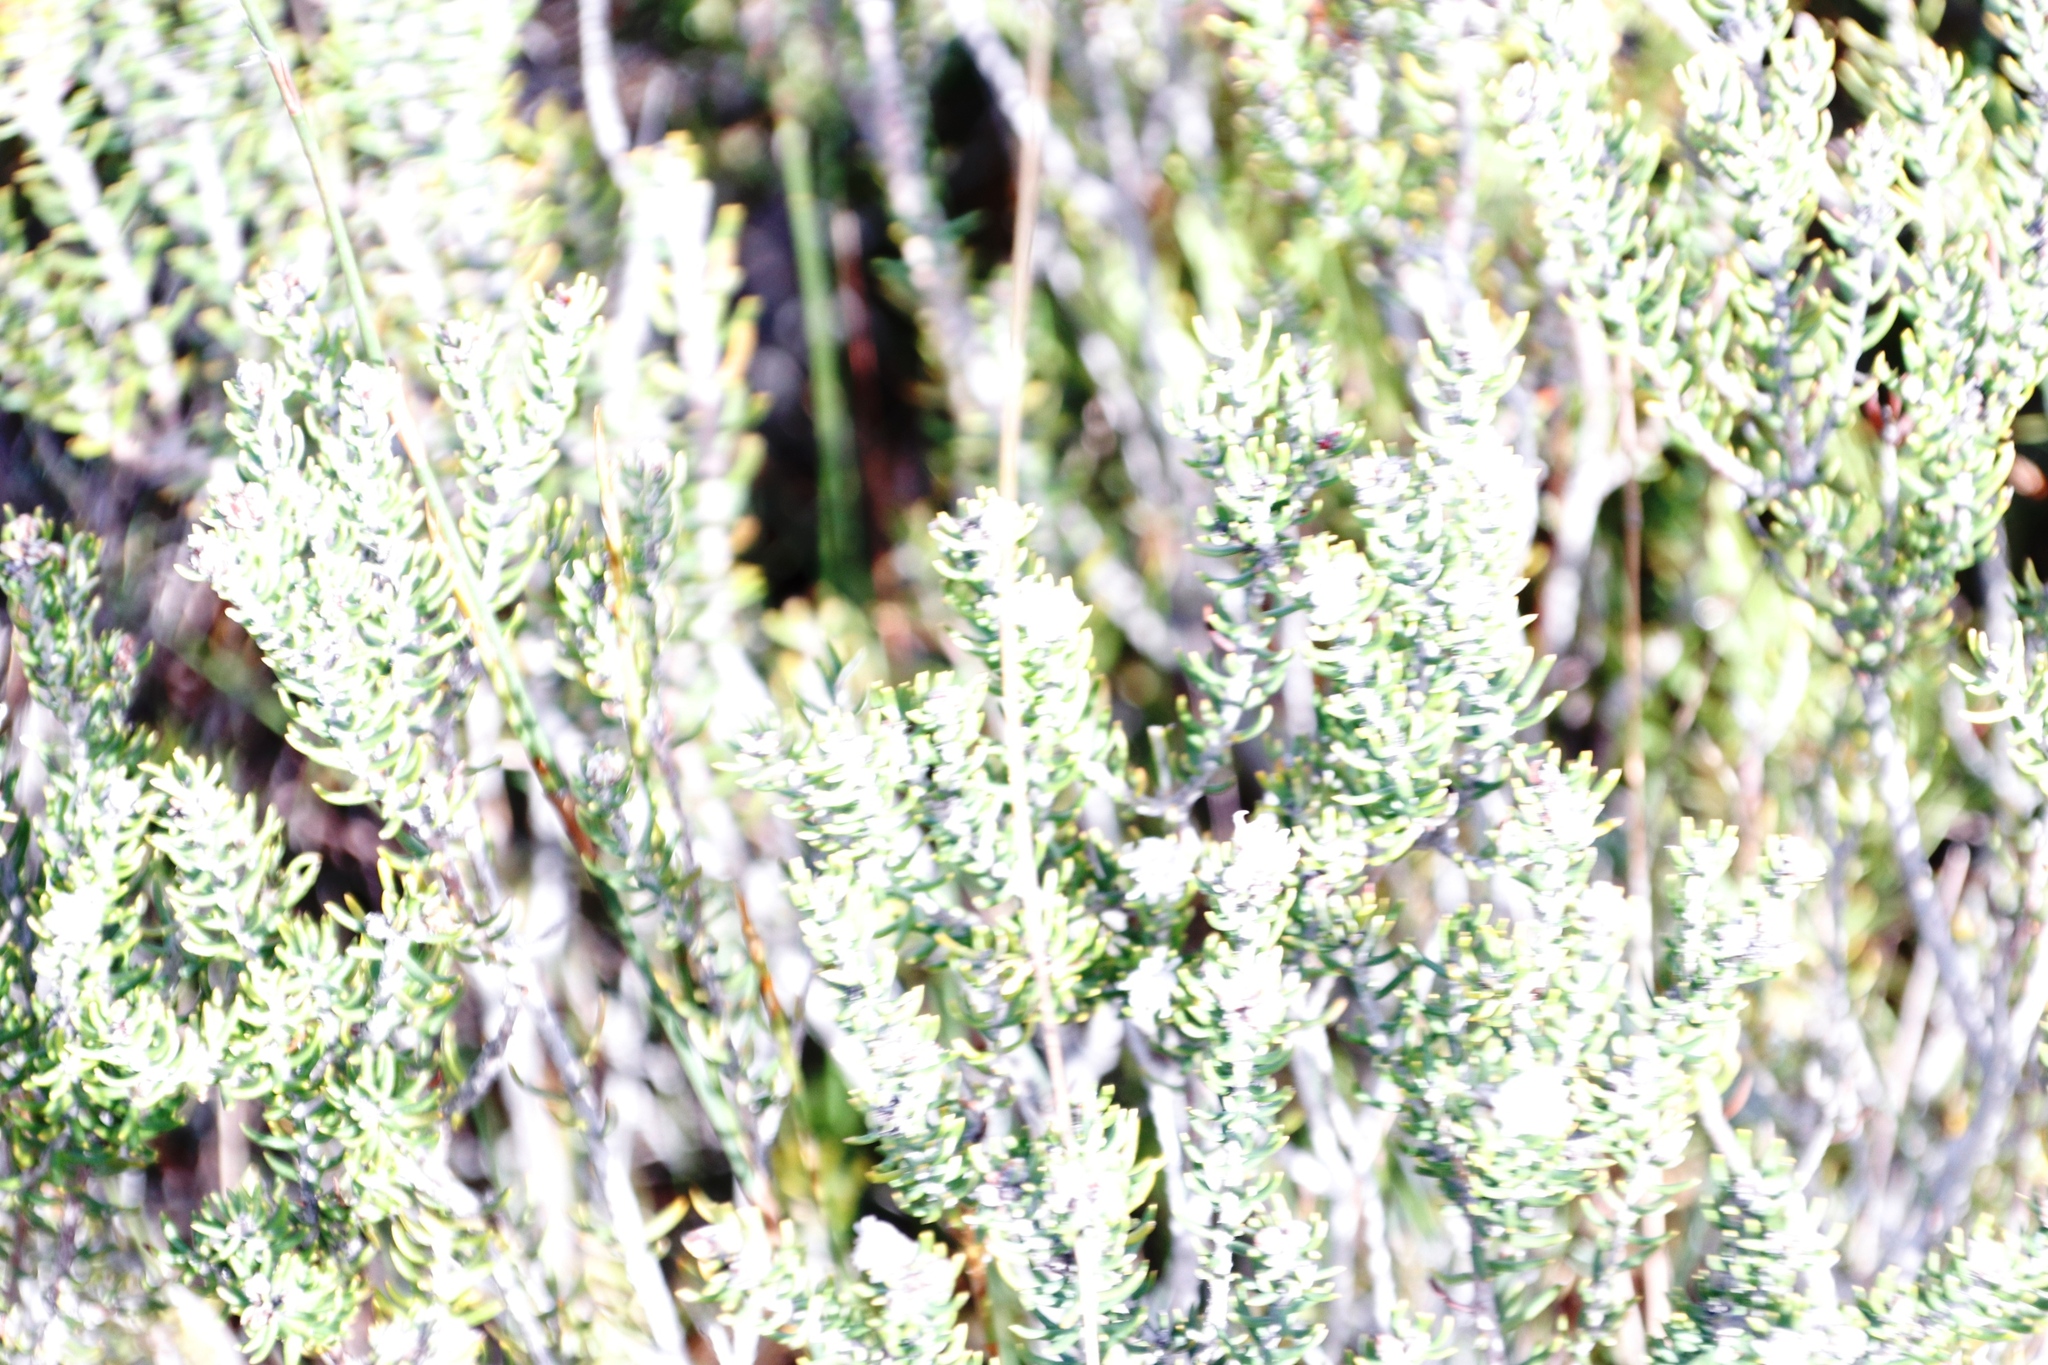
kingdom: Plantae
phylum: Tracheophyta
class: Magnoliopsida
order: Rosales
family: Rhamnaceae
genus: Trichocephalus
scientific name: Trichocephalus stipularis
